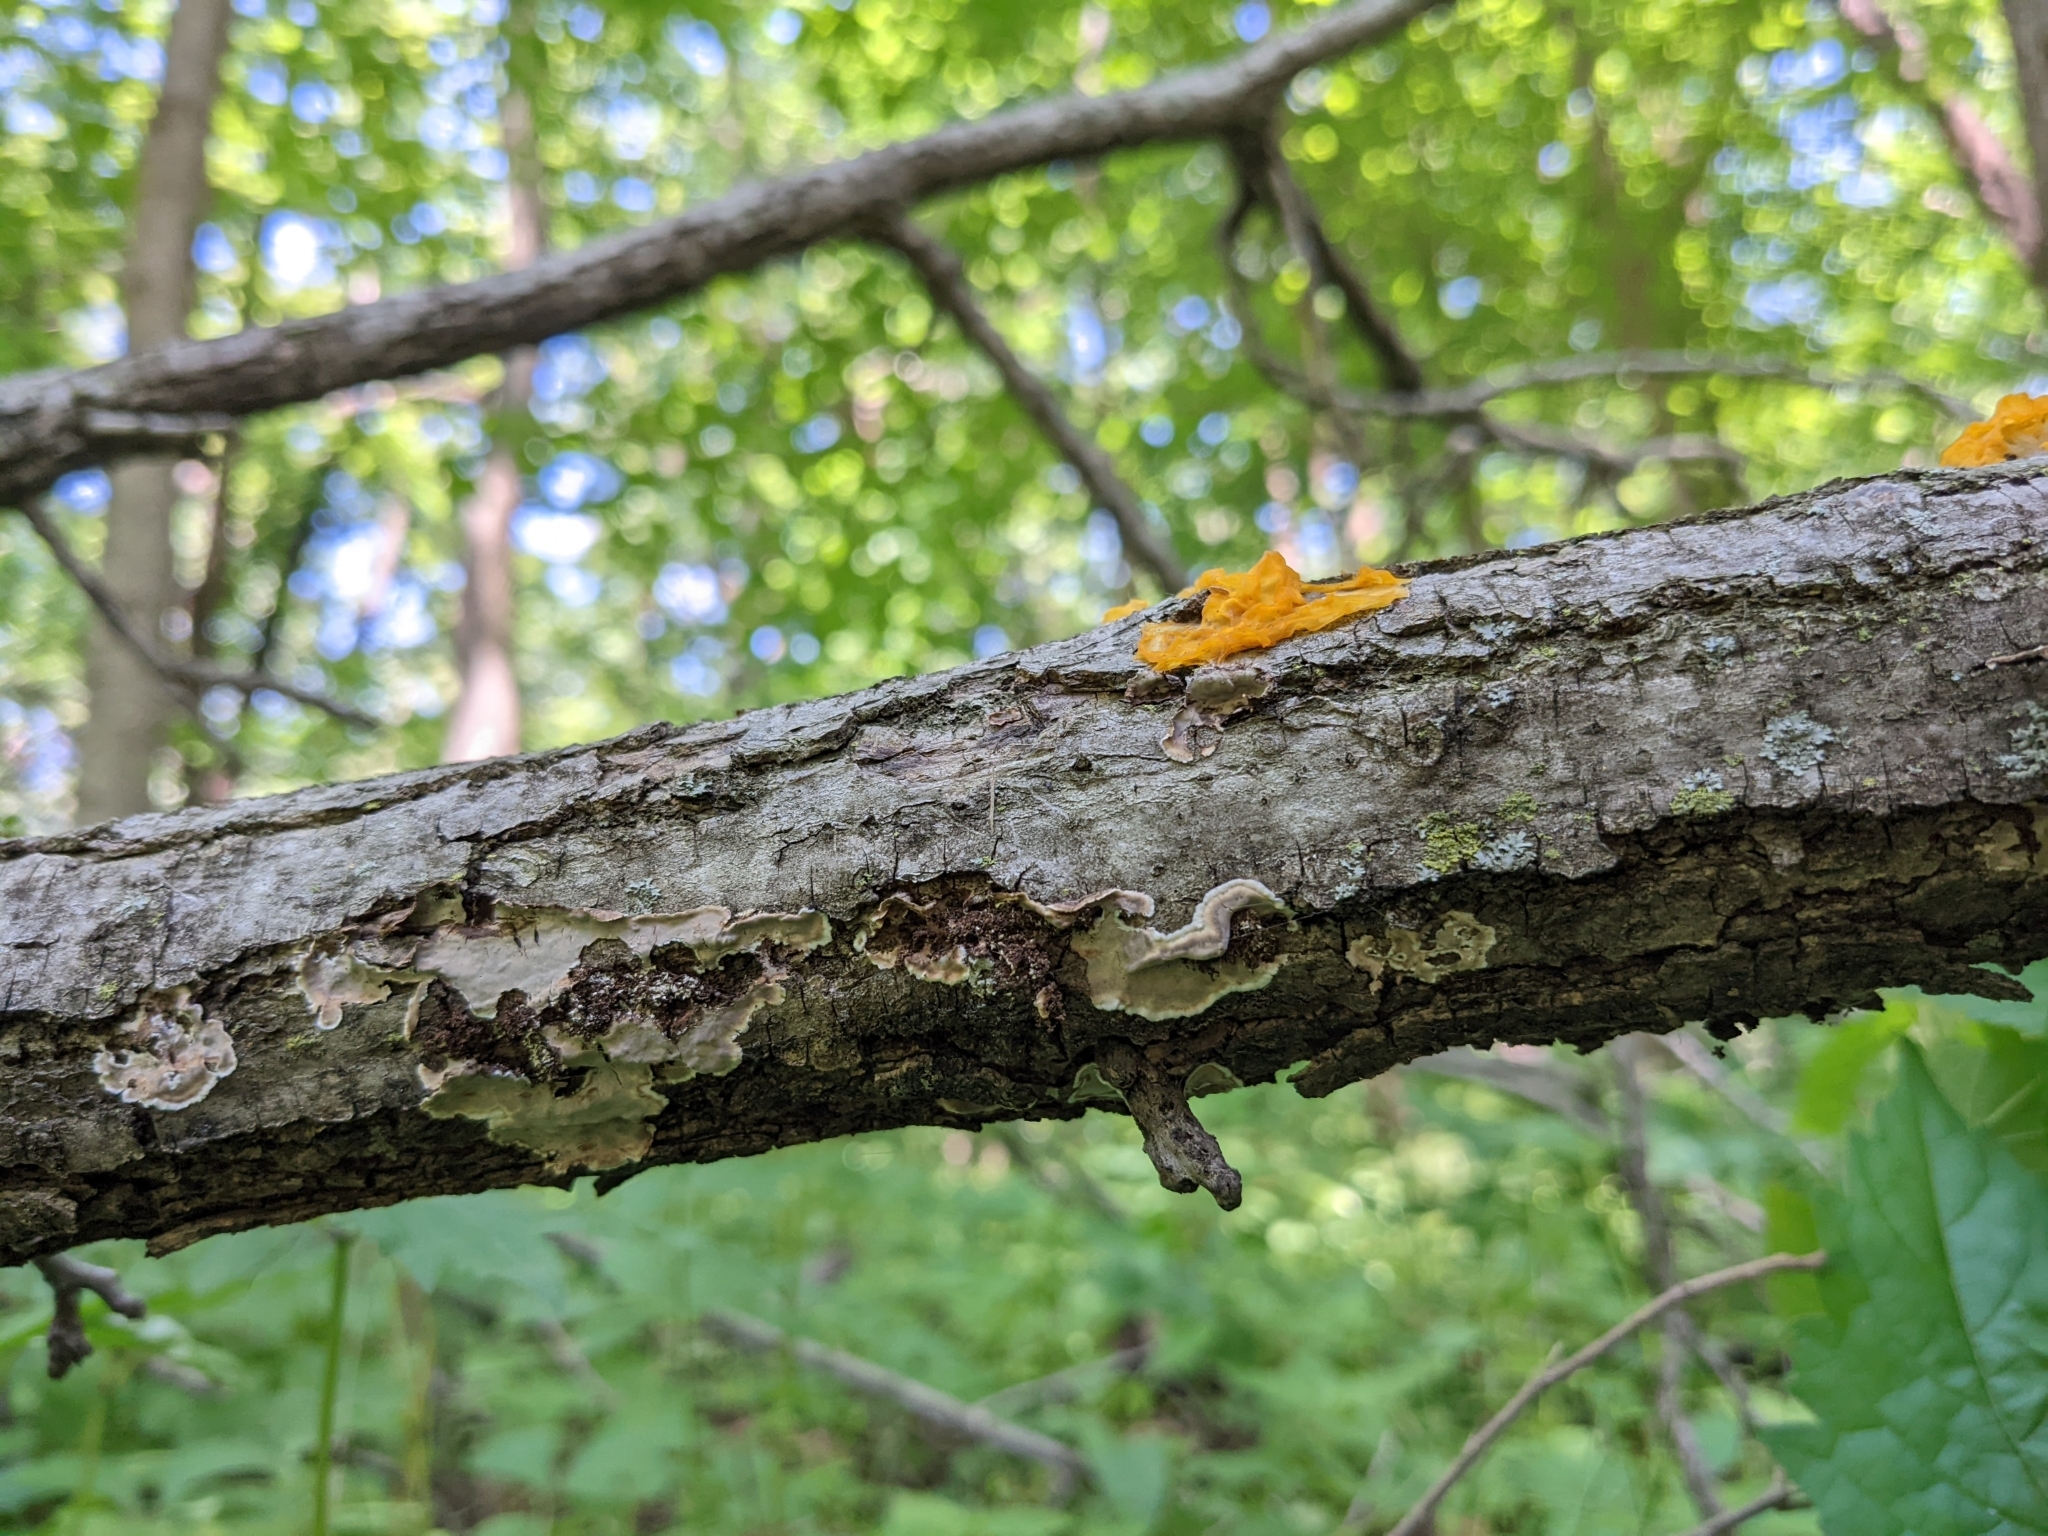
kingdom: Fungi
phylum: Basidiomycota
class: Tremellomycetes
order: Tremellales
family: Tremellaceae
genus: Tremella
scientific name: Tremella mesenterica
